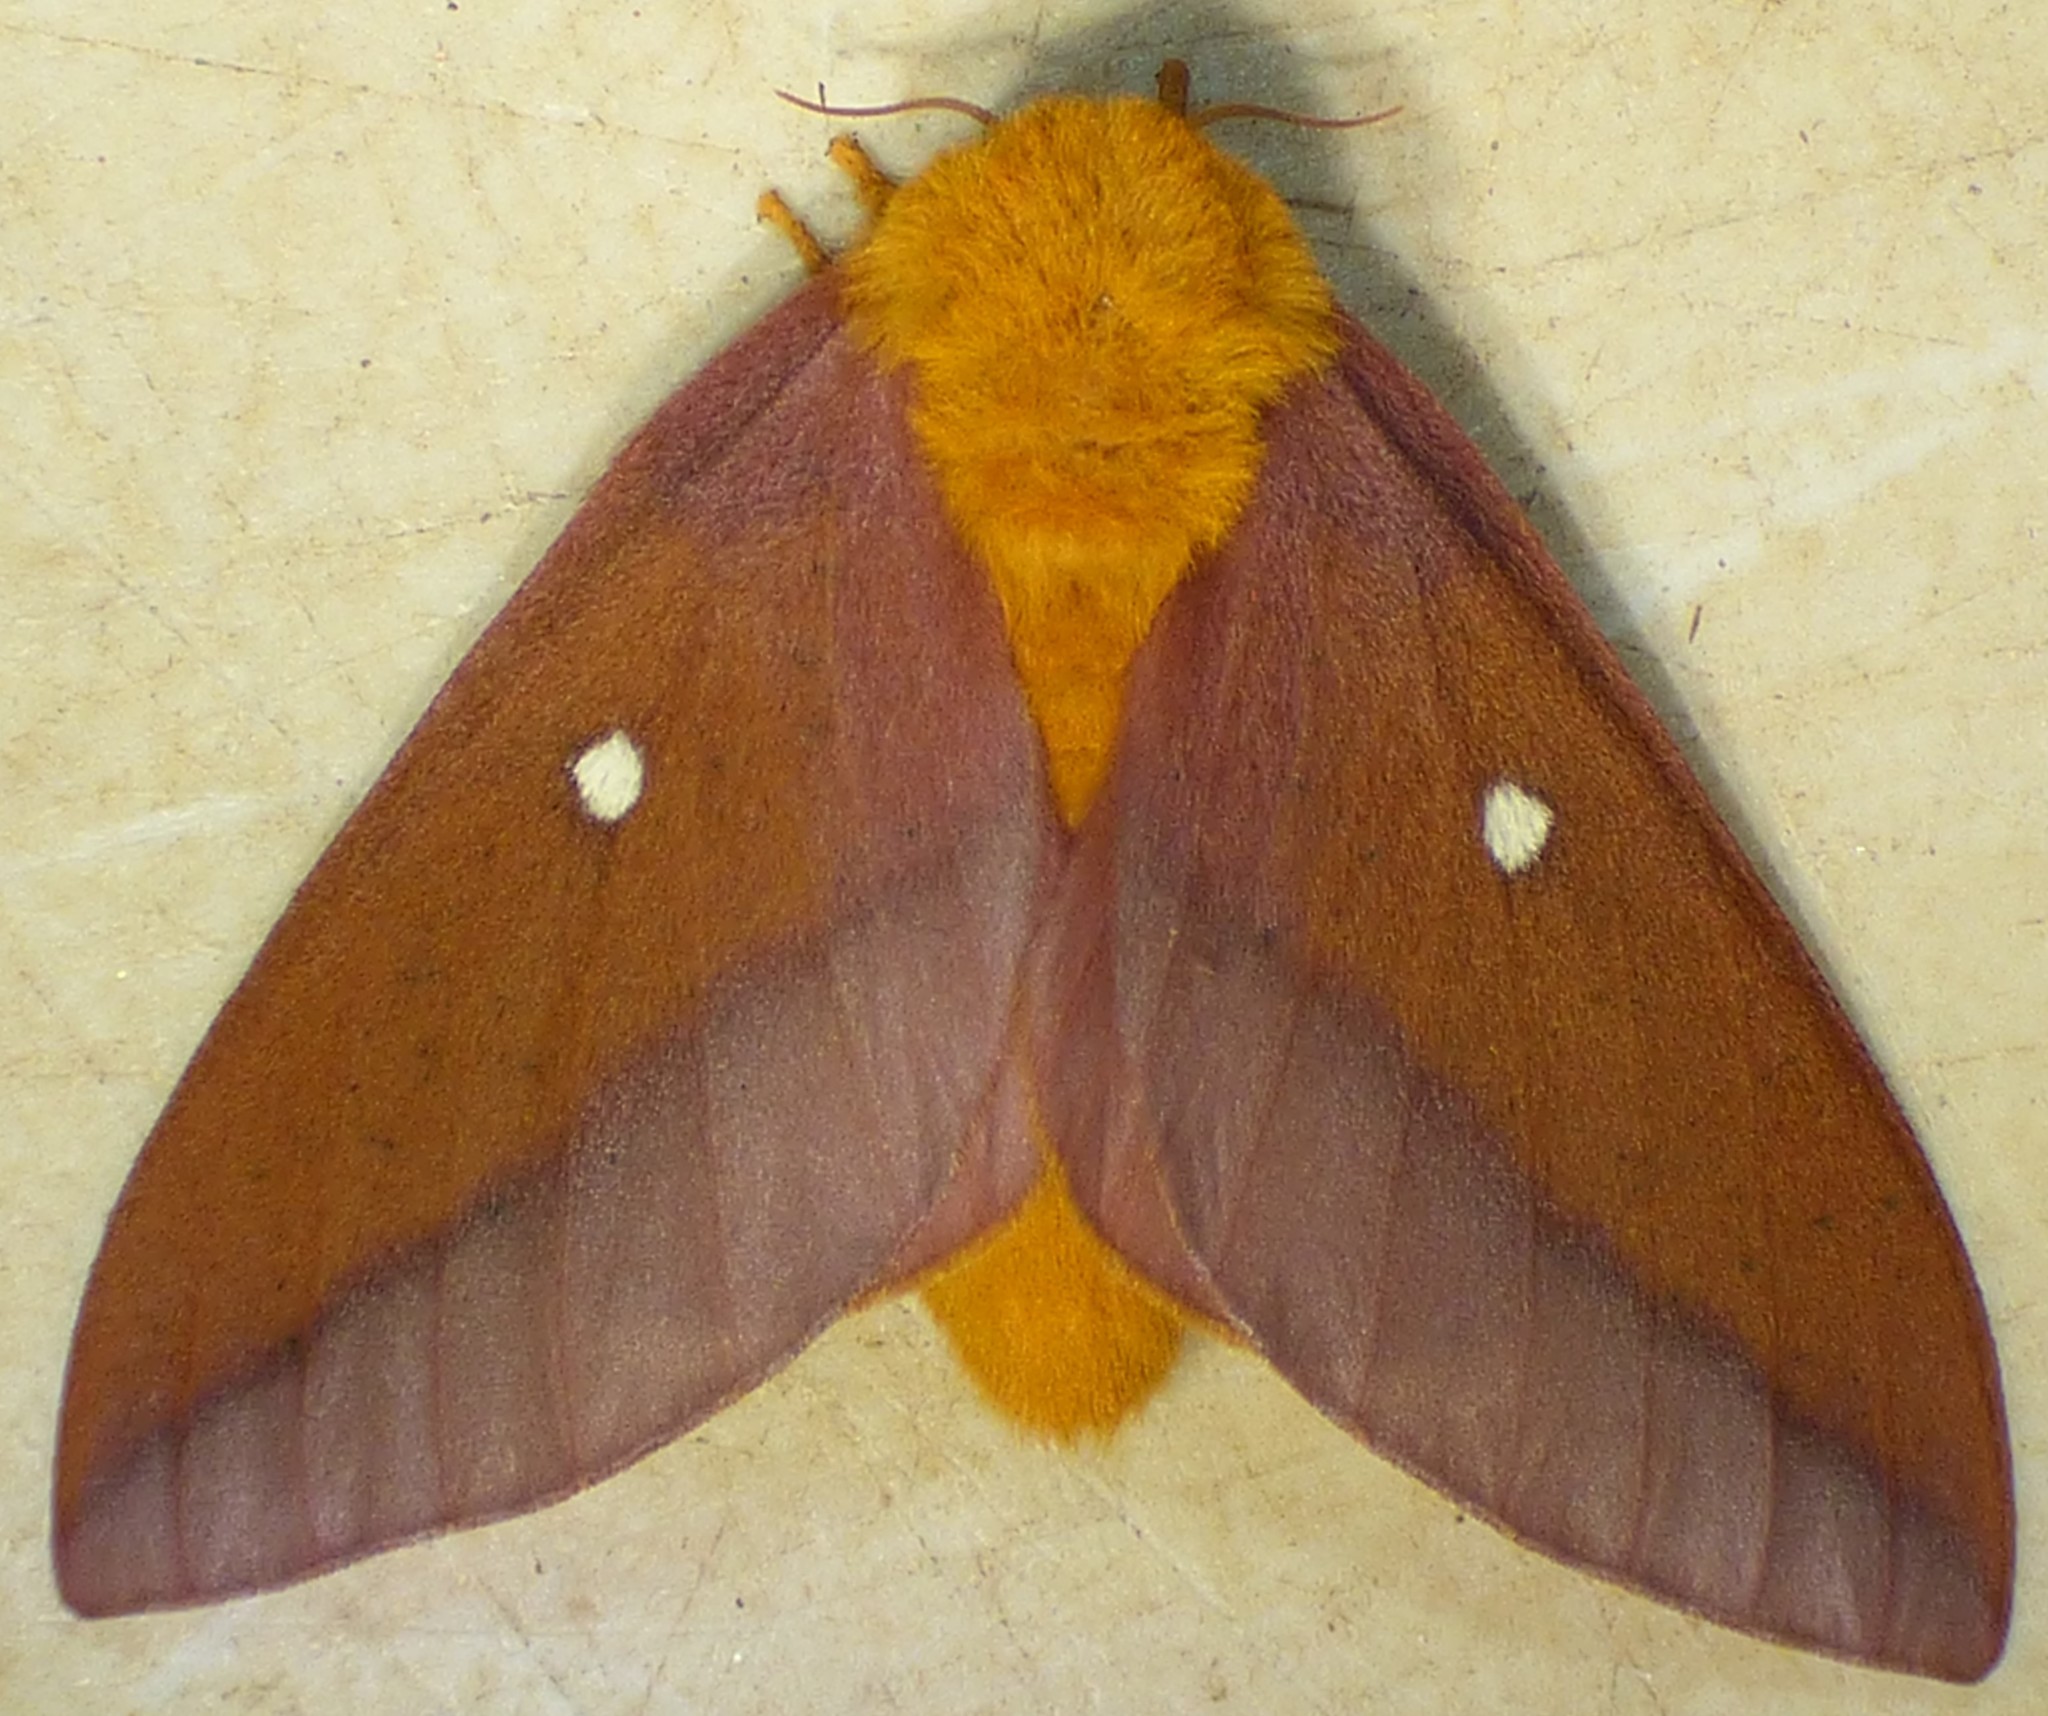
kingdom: Animalia
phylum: Arthropoda
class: Insecta
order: Lepidoptera
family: Saturniidae
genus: Anisota
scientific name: Anisota virginiensis
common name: Pink striped oakworm moth
